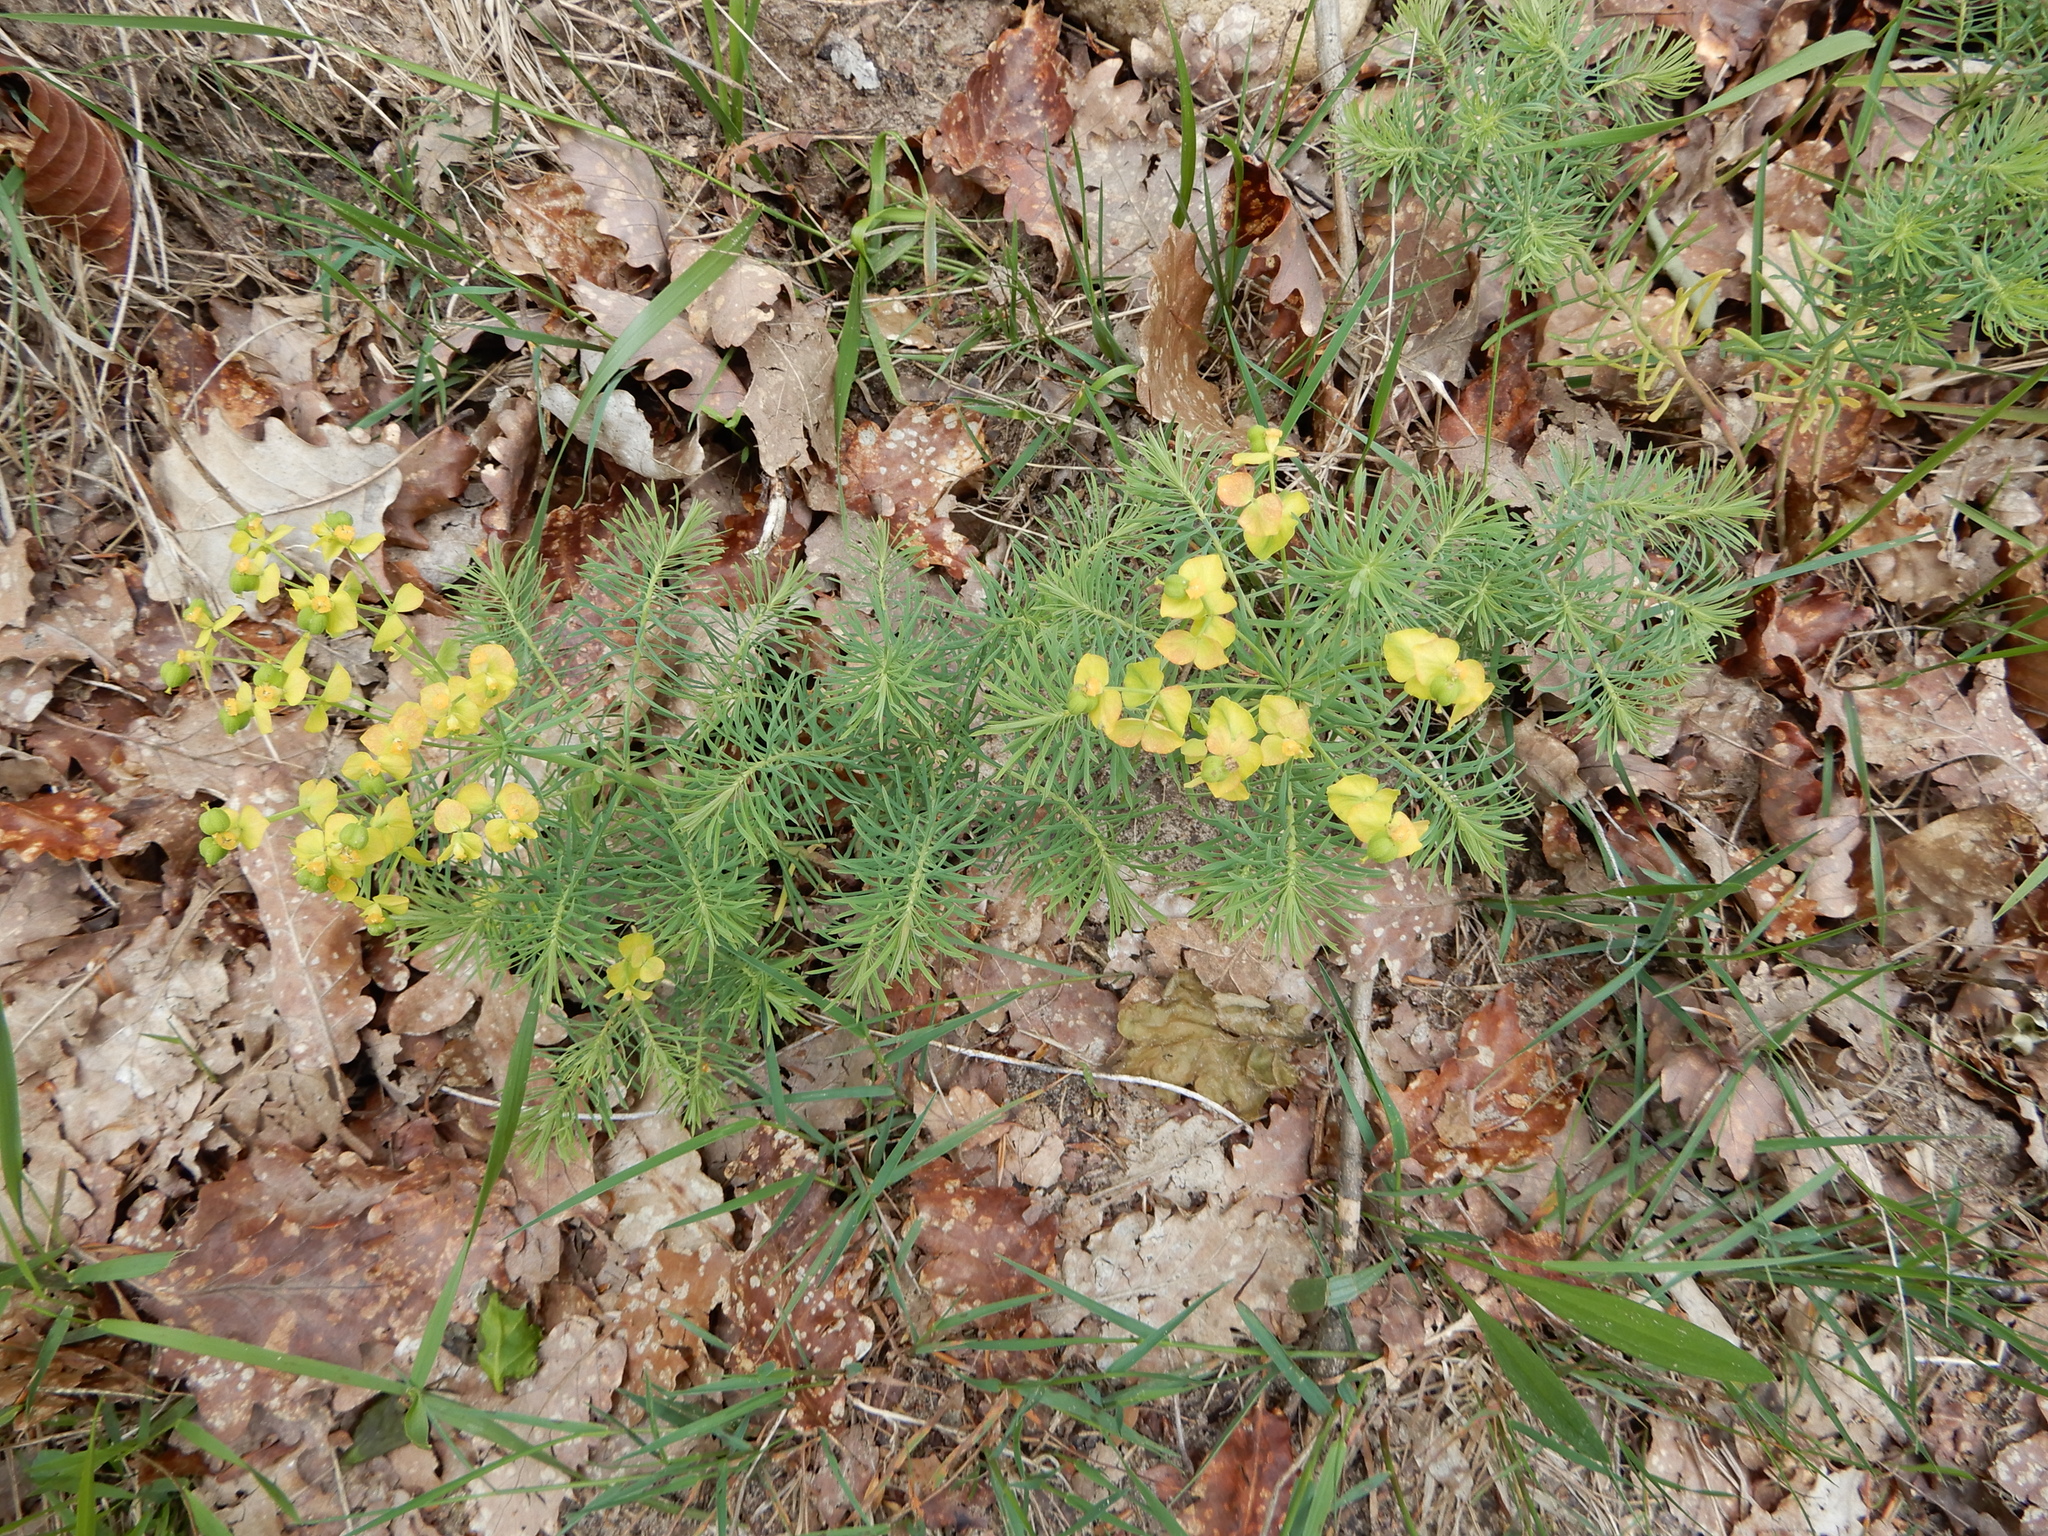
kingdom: Plantae
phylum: Tracheophyta
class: Magnoliopsida
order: Malpighiales
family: Euphorbiaceae
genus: Euphorbia
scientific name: Euphorbia cyparissias
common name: Cypress spurge
